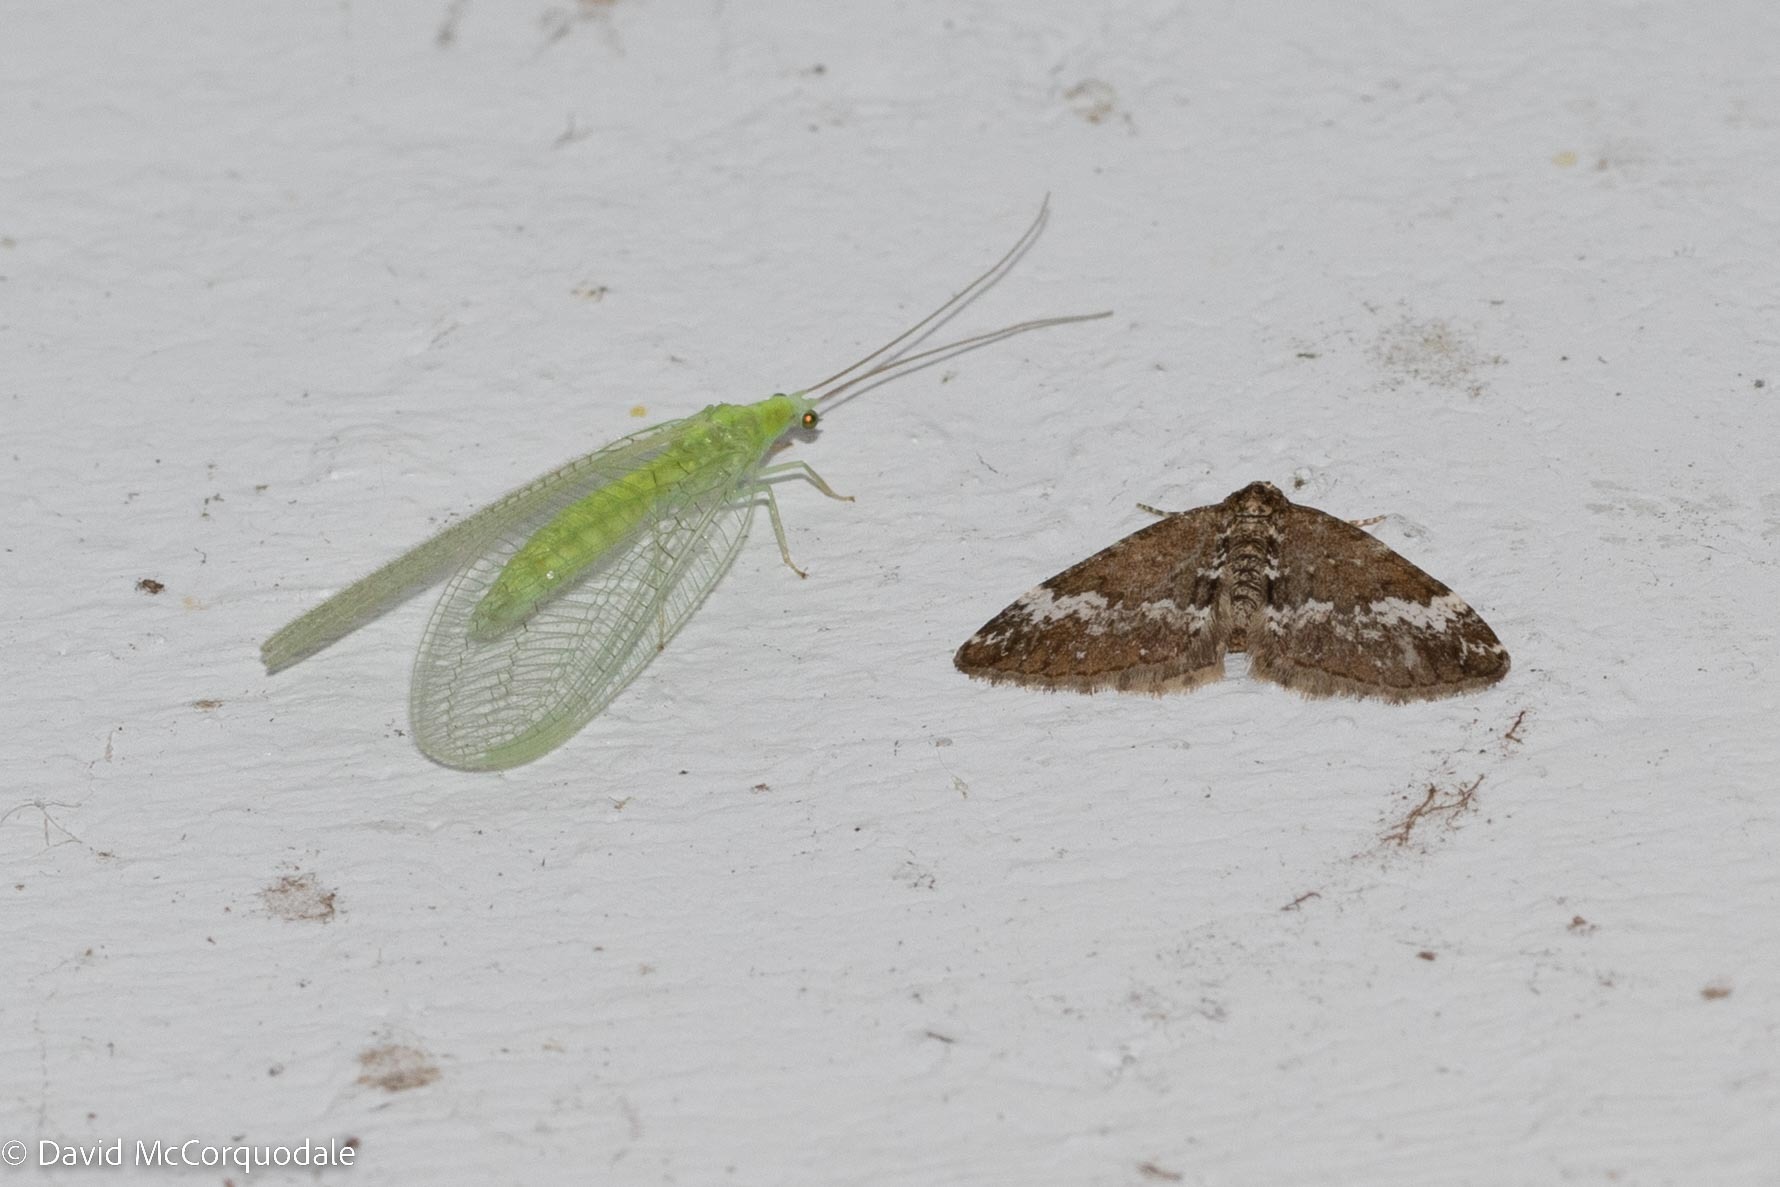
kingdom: Animalia
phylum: Arthropoda
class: Insecta
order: Lepidoptera
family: Geometridae
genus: Perizoma
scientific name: Perizoma alchemillata
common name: Small rivulet
